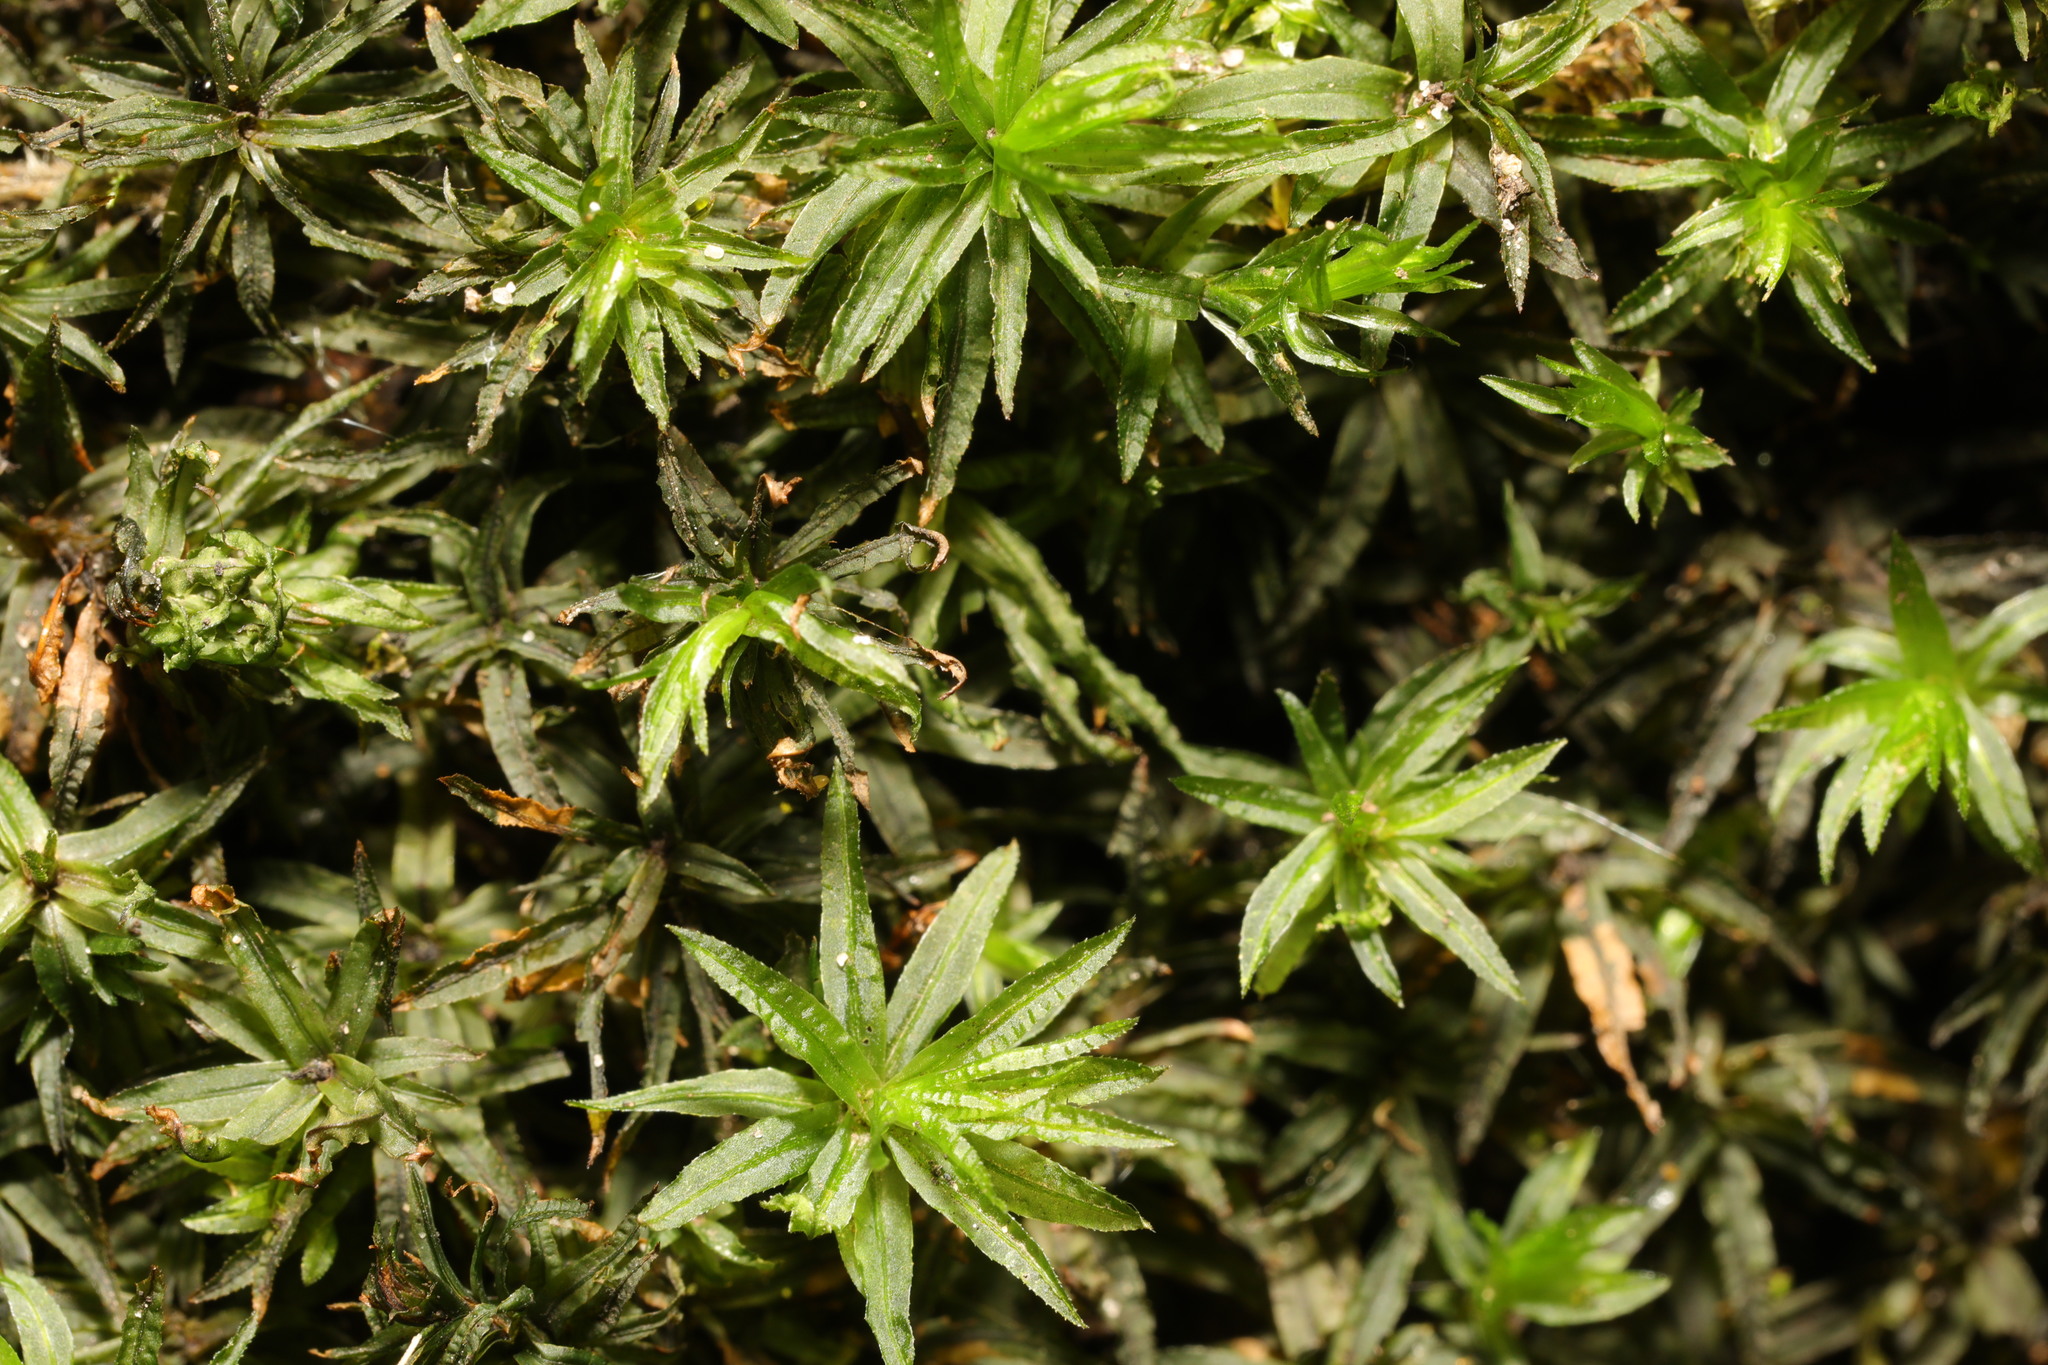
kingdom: Plantae
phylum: Bryophyta
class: Polytrichopsida
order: Polytrichales
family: Polytrichaceae
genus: Atrichum
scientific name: Atrichum undulatum
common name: Common smoothcap
